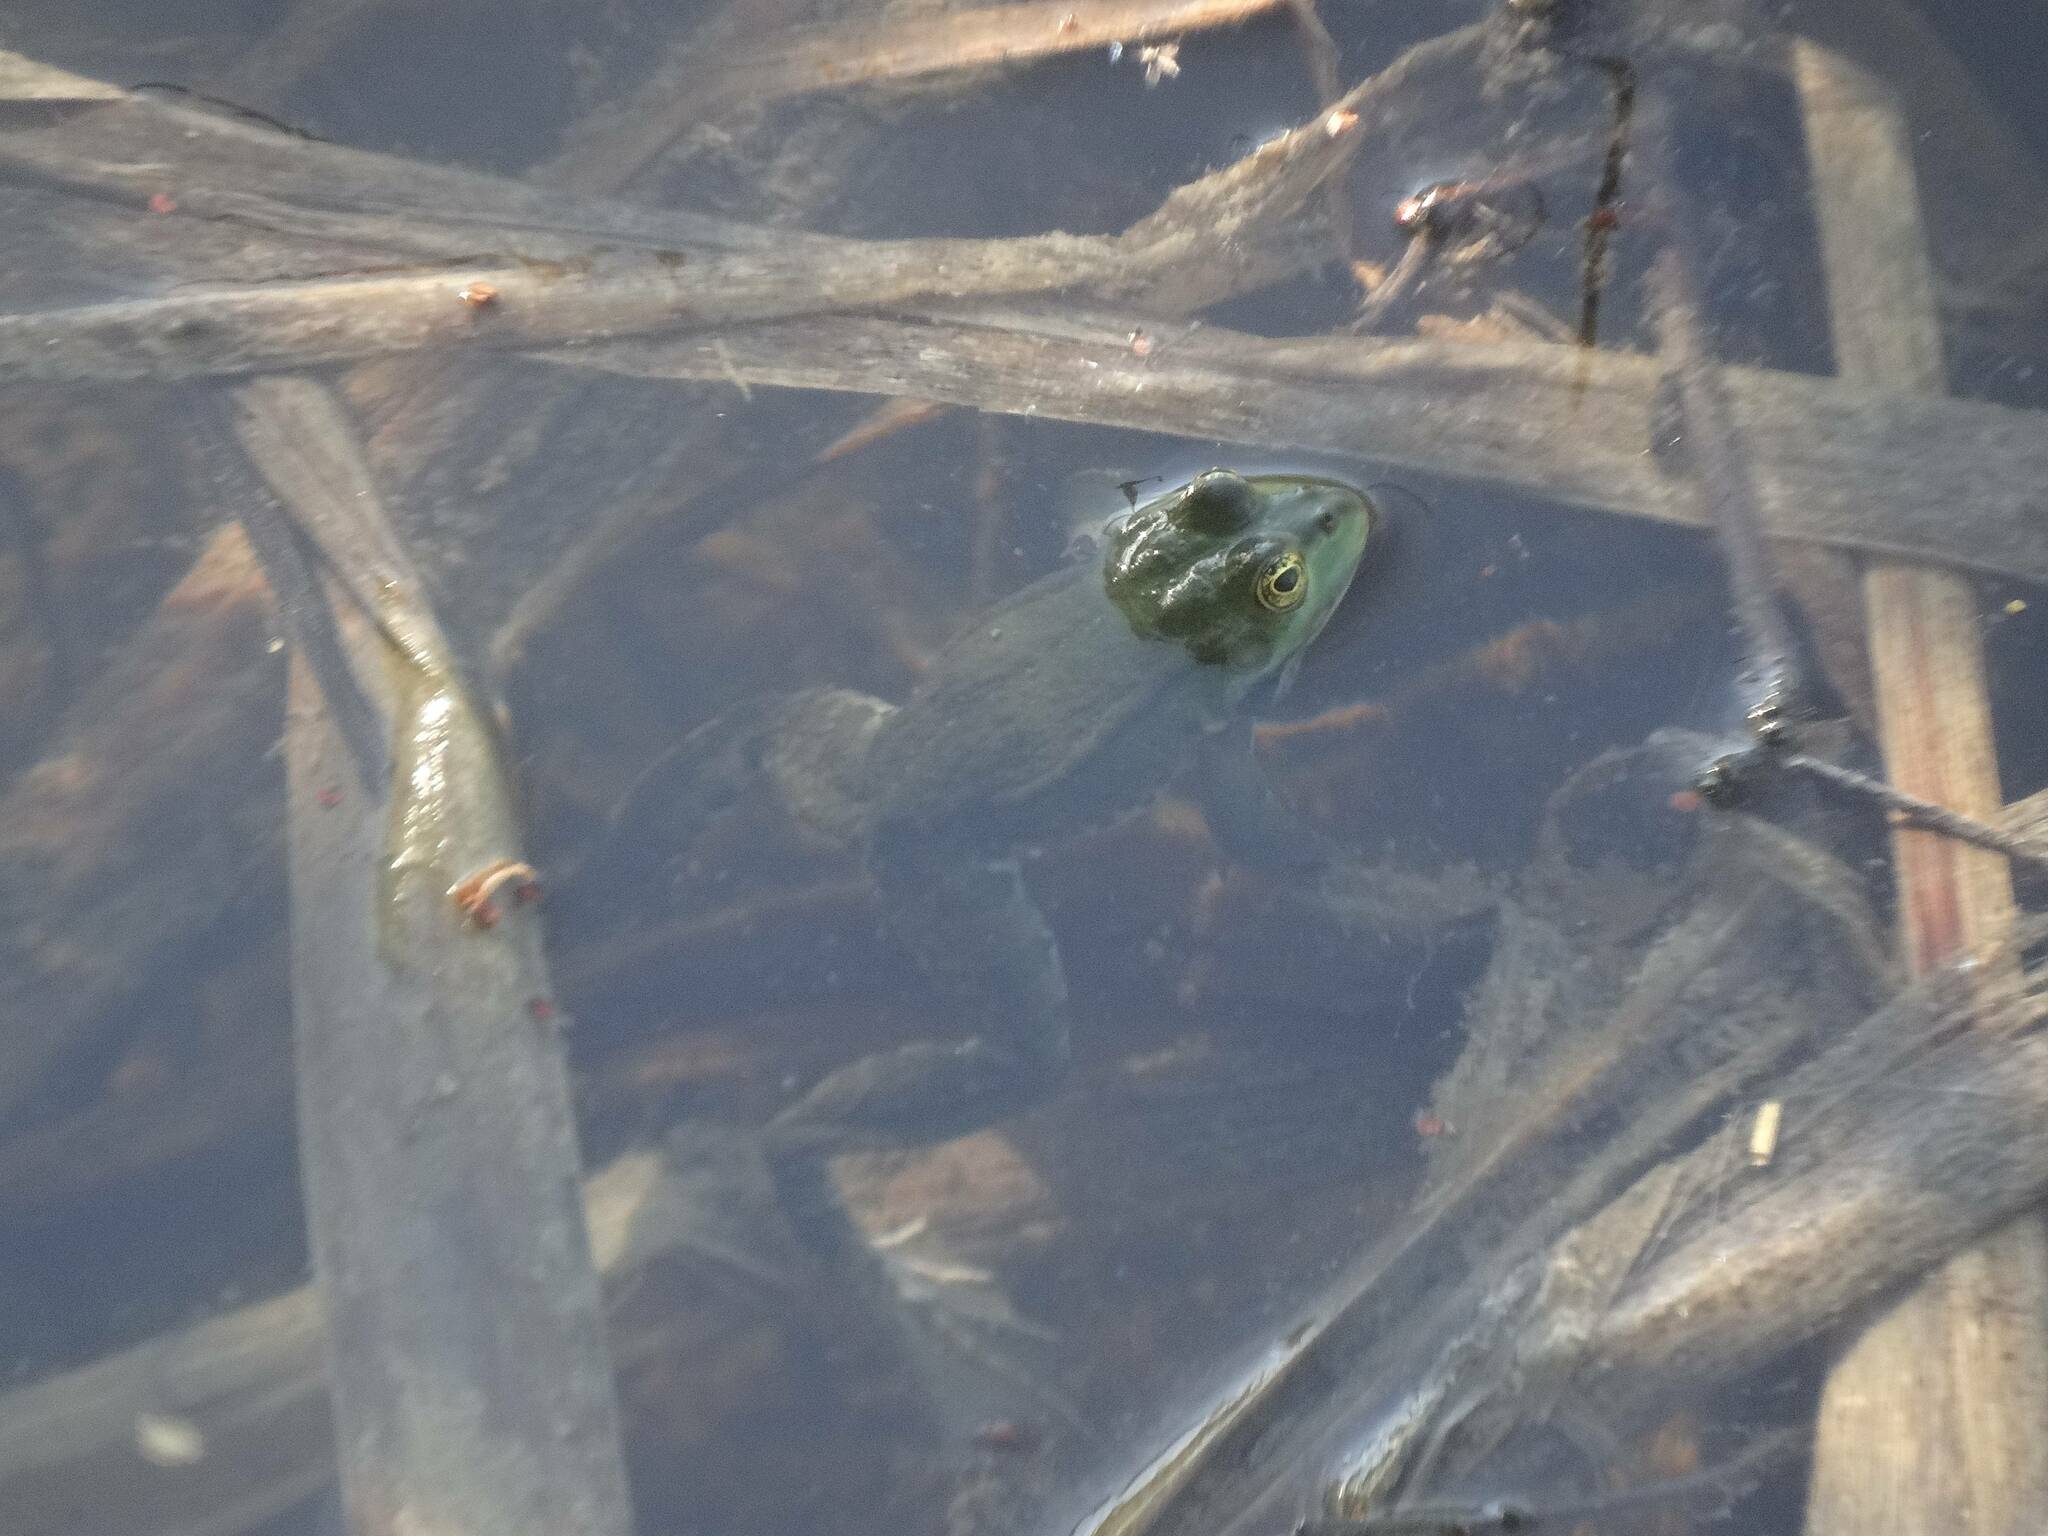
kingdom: Animalia
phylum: Chordata
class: Amphibia
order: Anura
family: Ranidae
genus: Pelophylax
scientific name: Pelophylax ridibundus
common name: Marsh frog
